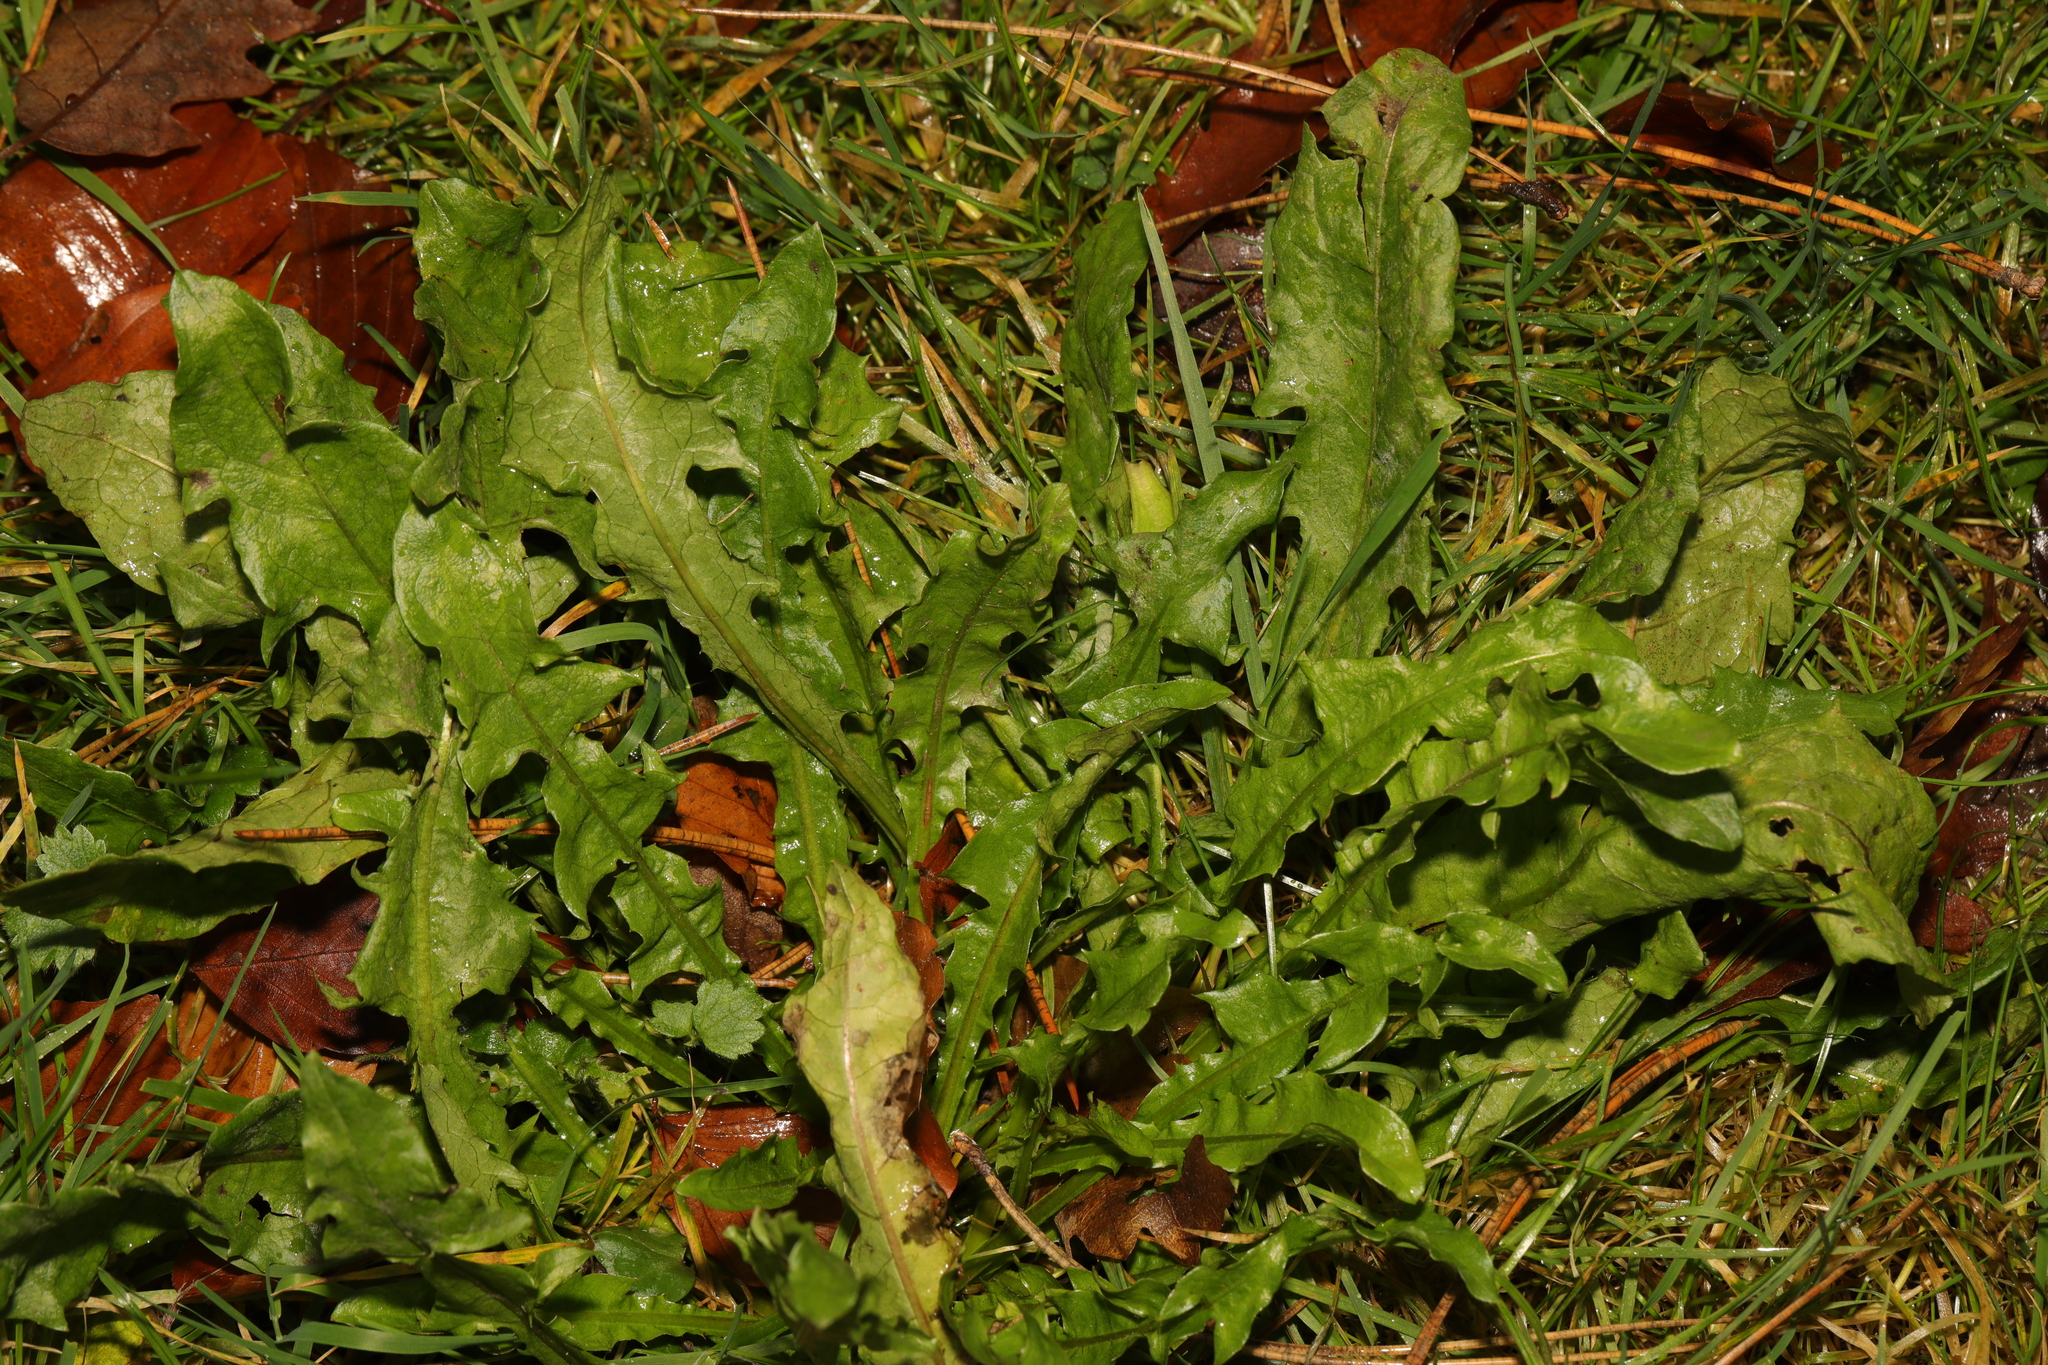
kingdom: Plantae
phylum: Tracheophyta
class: Magnoliopsida
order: Asterales
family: Asteraceae
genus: Taraxacum
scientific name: Taraxacum officinale
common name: Common dandelion
